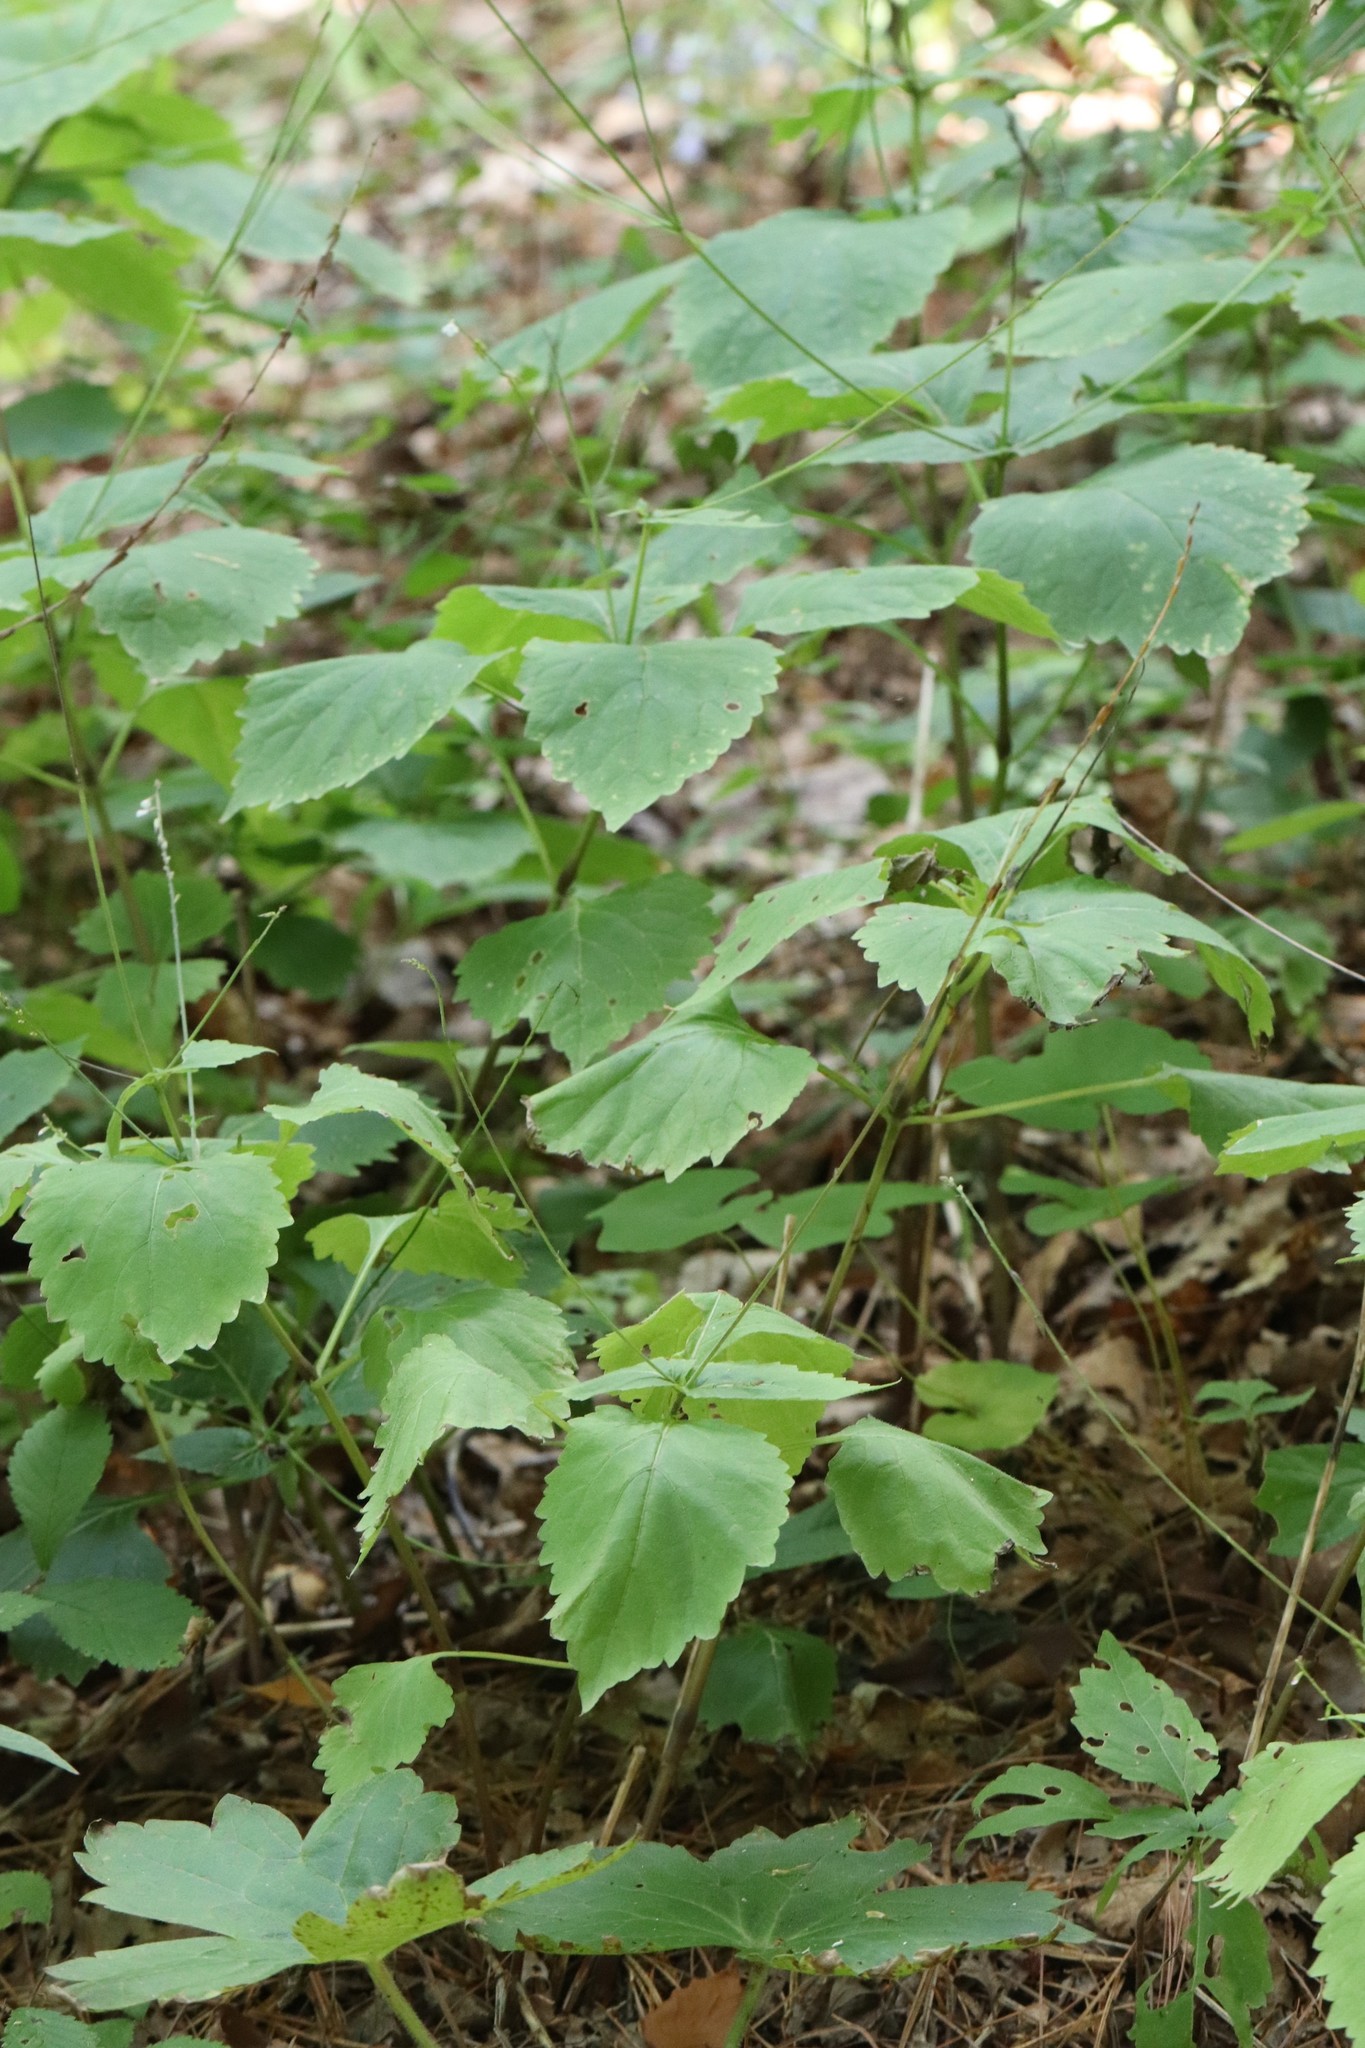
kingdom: Plantae
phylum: Tracheophyta
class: Magnoliopsida
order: Lamiales
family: Phrymaceae
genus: Phryma
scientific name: Phryma nana
